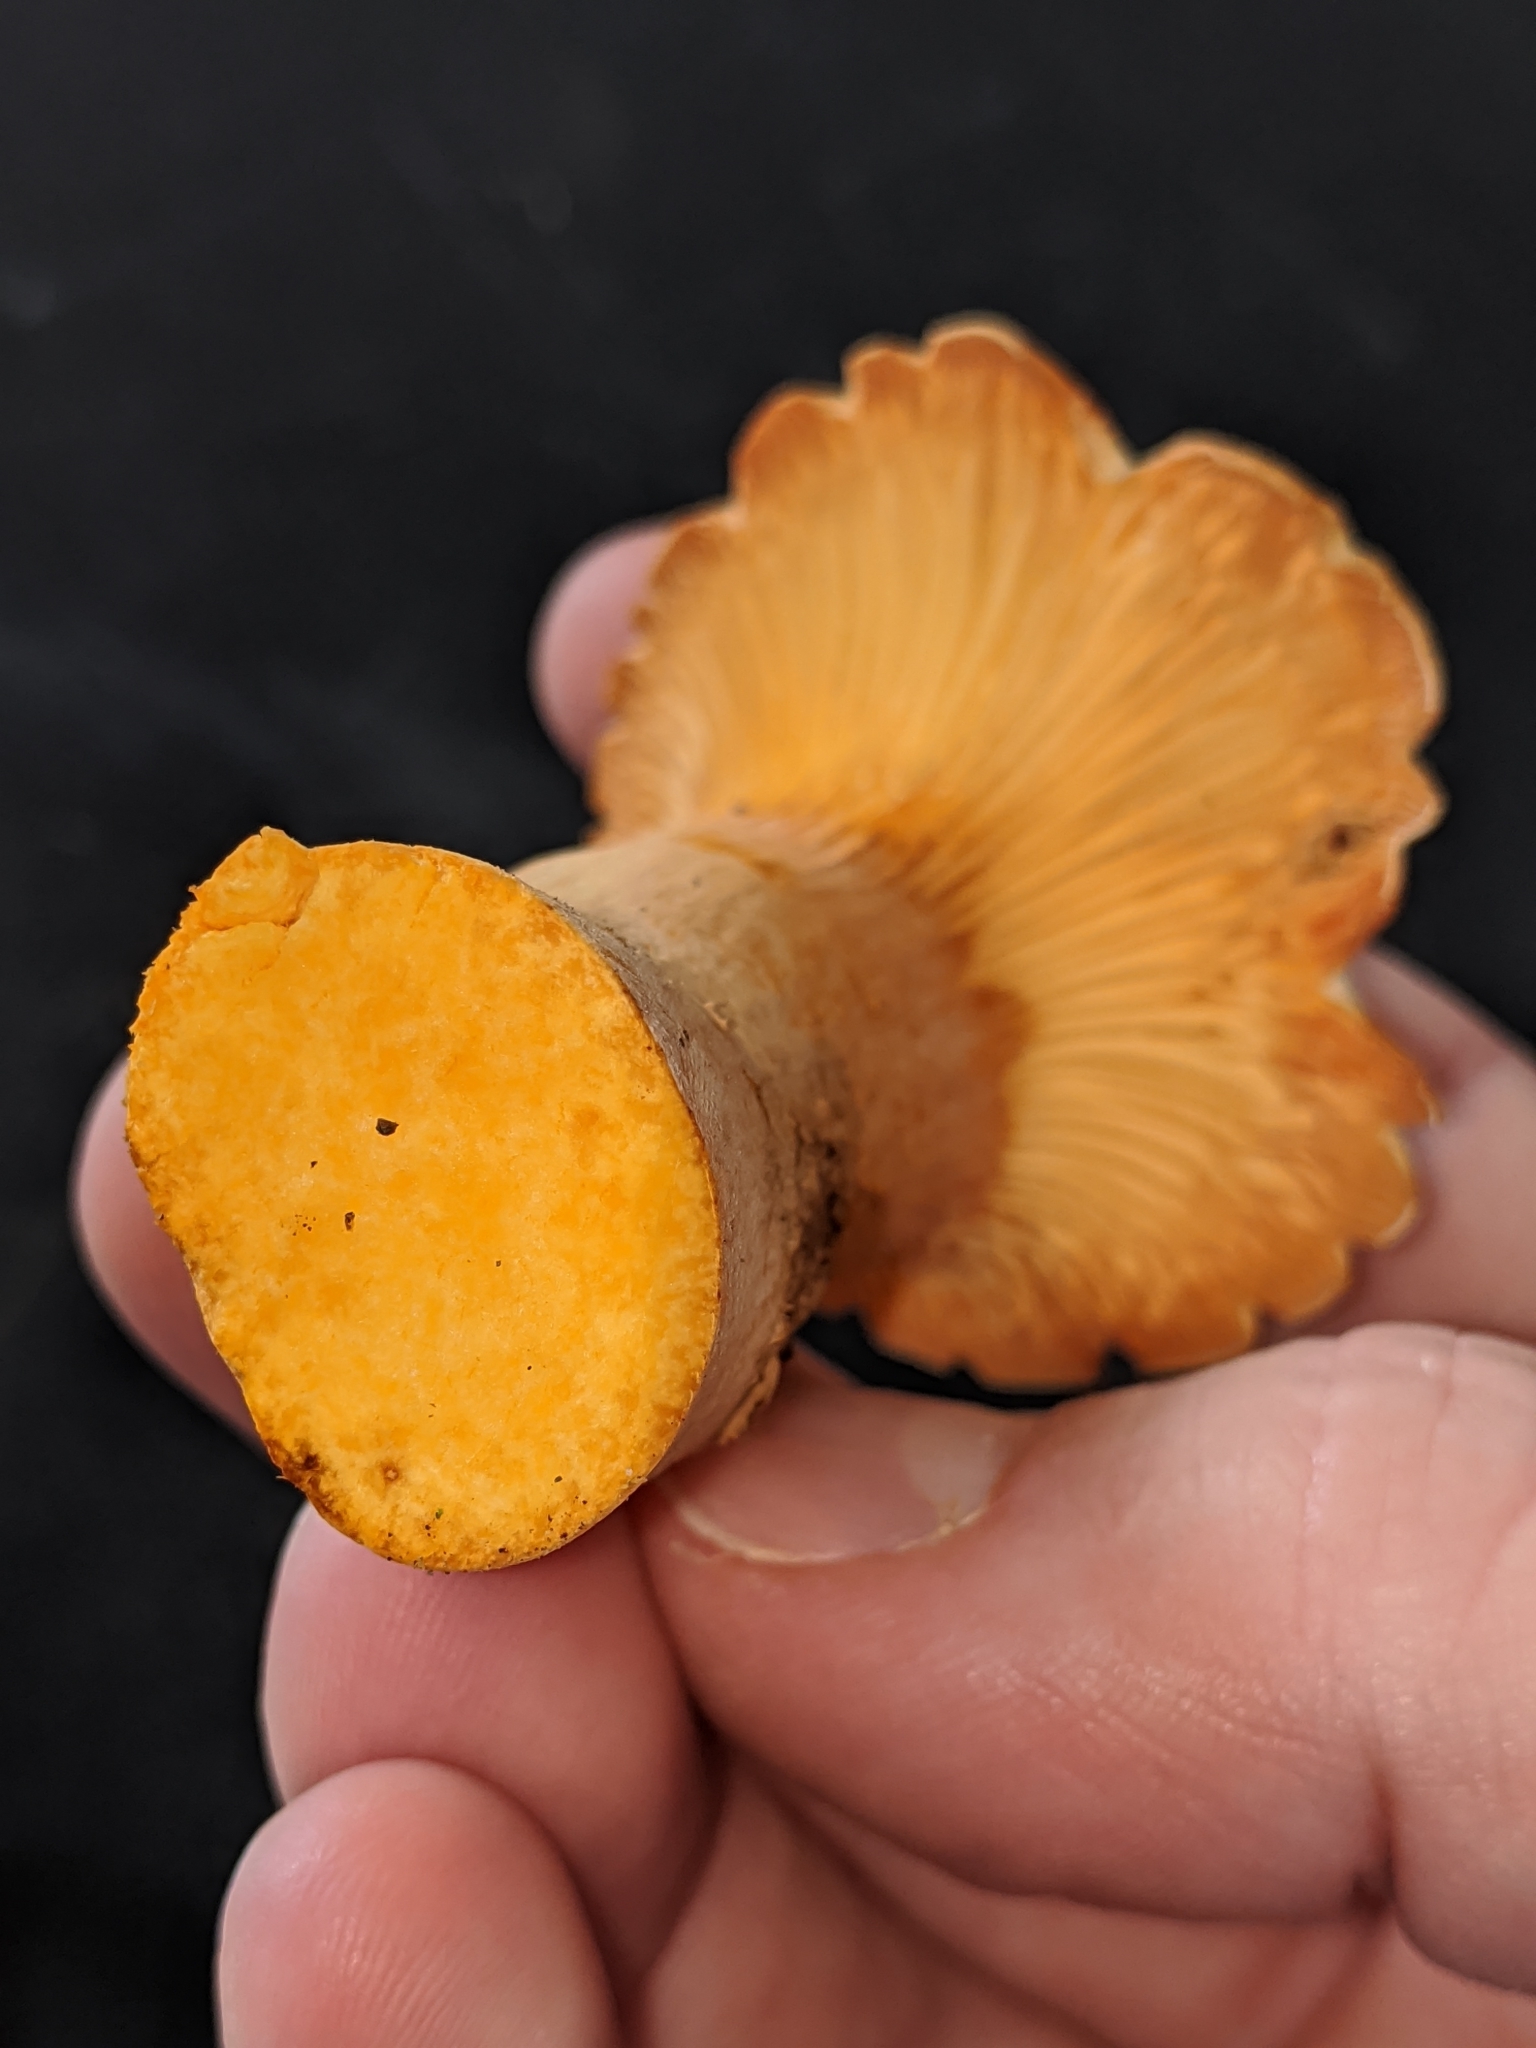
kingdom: Fungi
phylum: Basidiomycota
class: Agaricomycetes
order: Agaricales
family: Omphalotaceae
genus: Omphalotus
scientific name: Omphalotus illudens
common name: Jack o lantern
